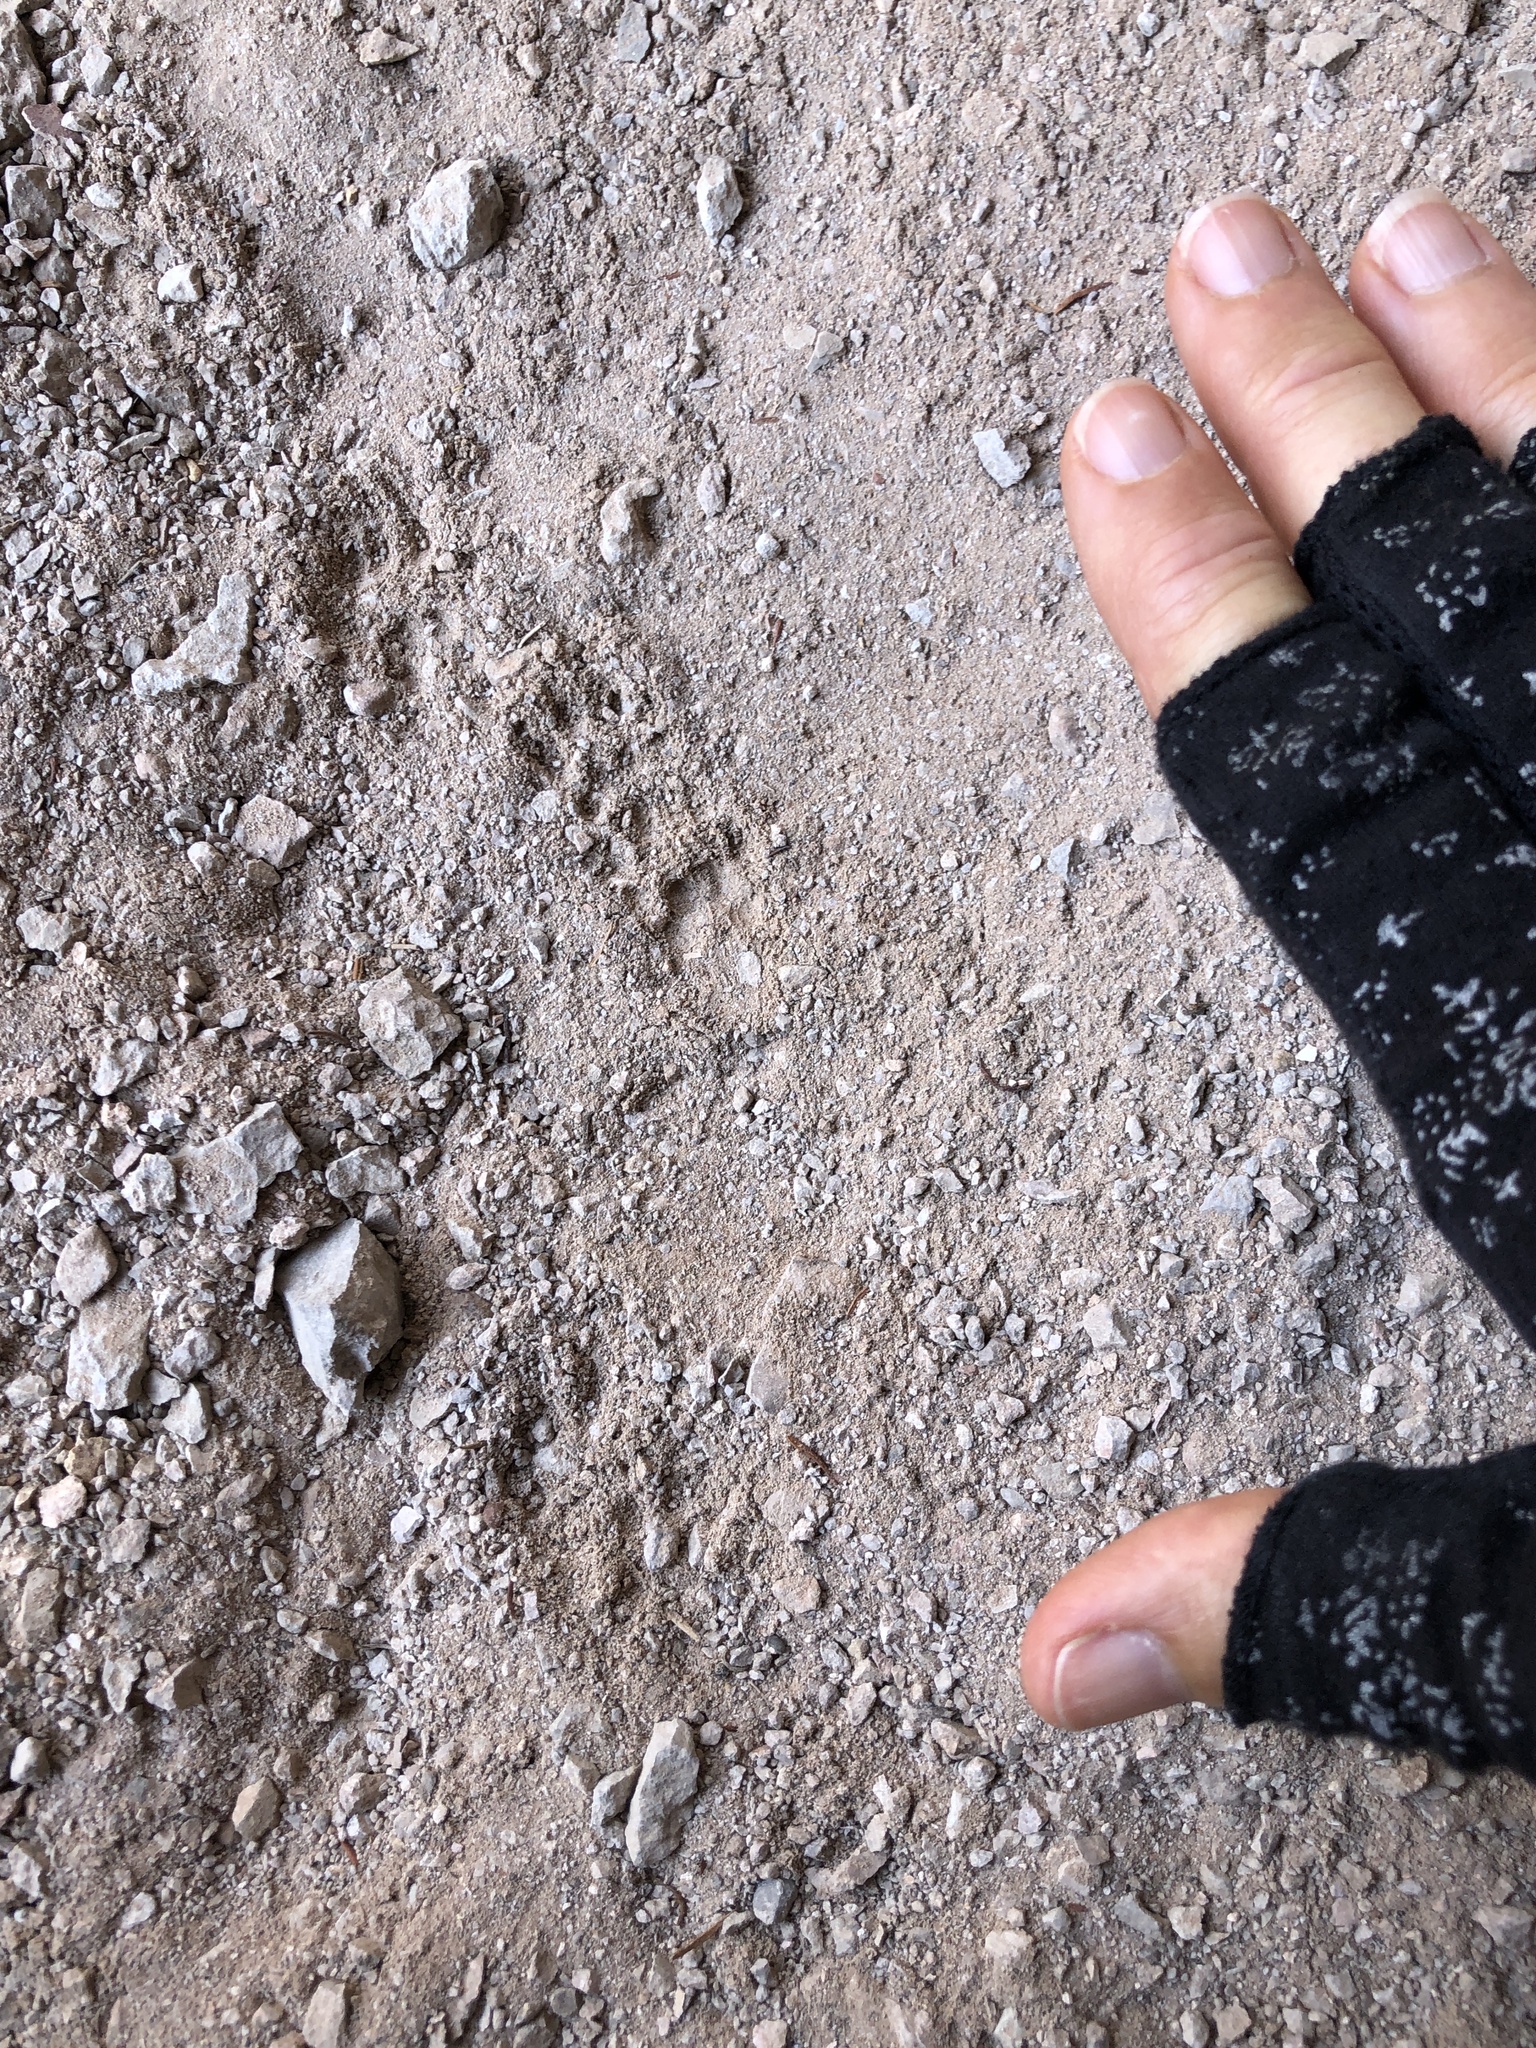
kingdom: Animalia
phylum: Chordata
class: Mammalia
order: Rodentia
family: Sciuridae
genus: Otospermophilus
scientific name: Otospermophilus beecheyi
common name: California ground squirrel
